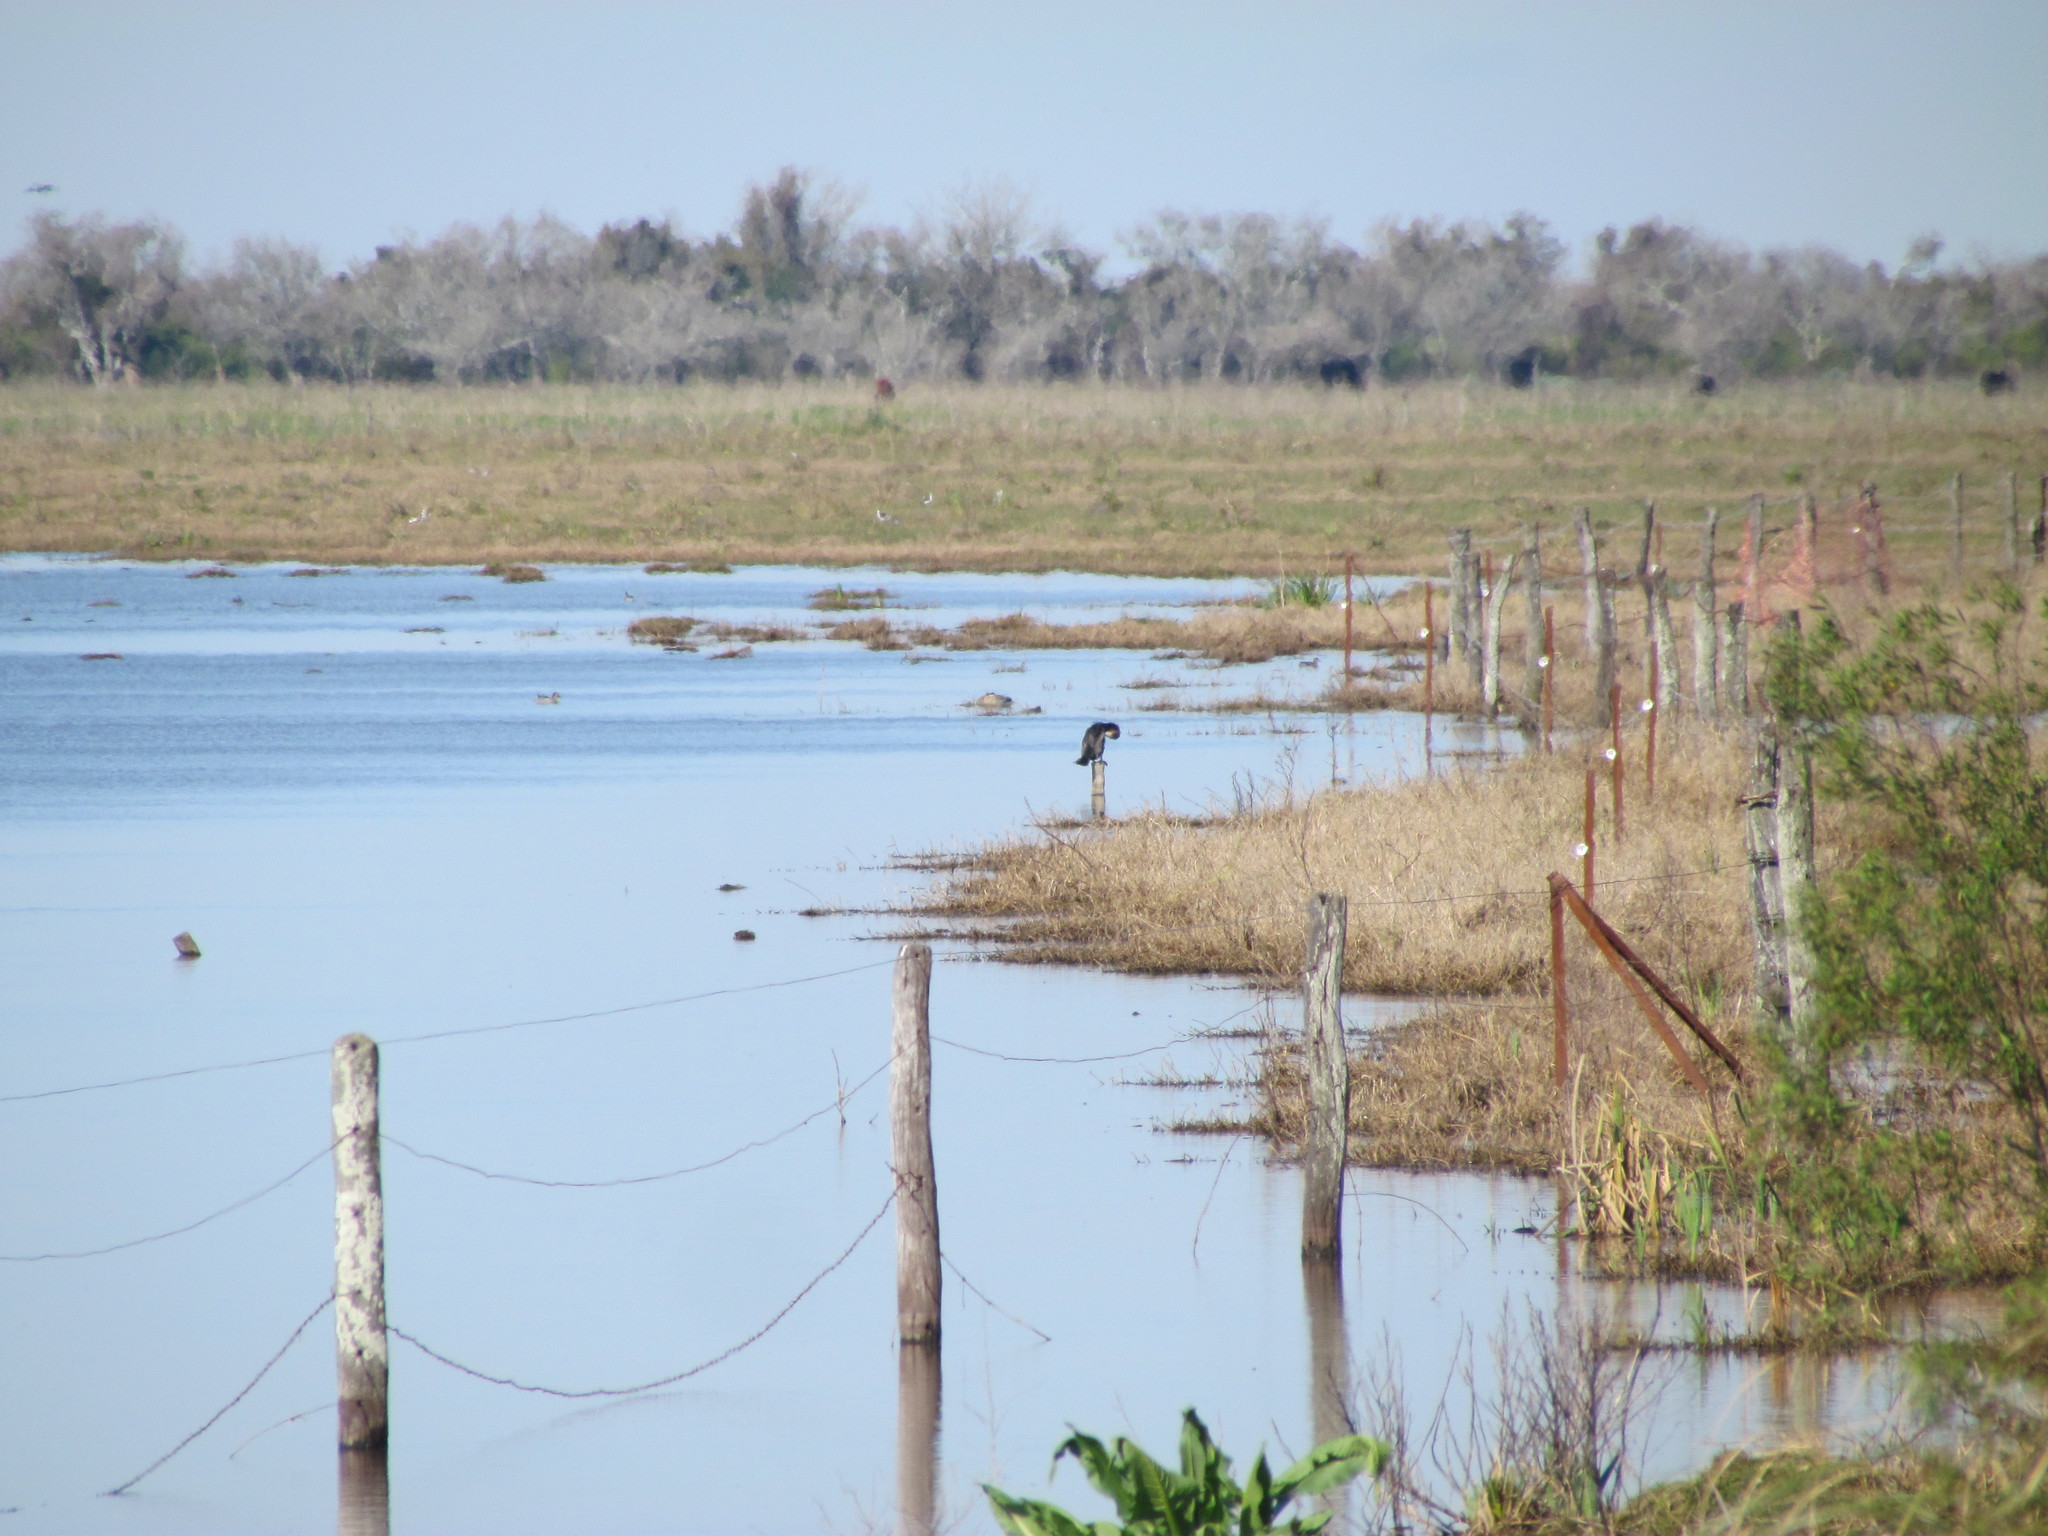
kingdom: Animalia
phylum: Chordata
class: Aves
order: Suliformes
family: Phalacrocoracidae
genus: Phalacrocorax
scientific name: Phalacrocorax brasilianus
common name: Neotropic cormorant
